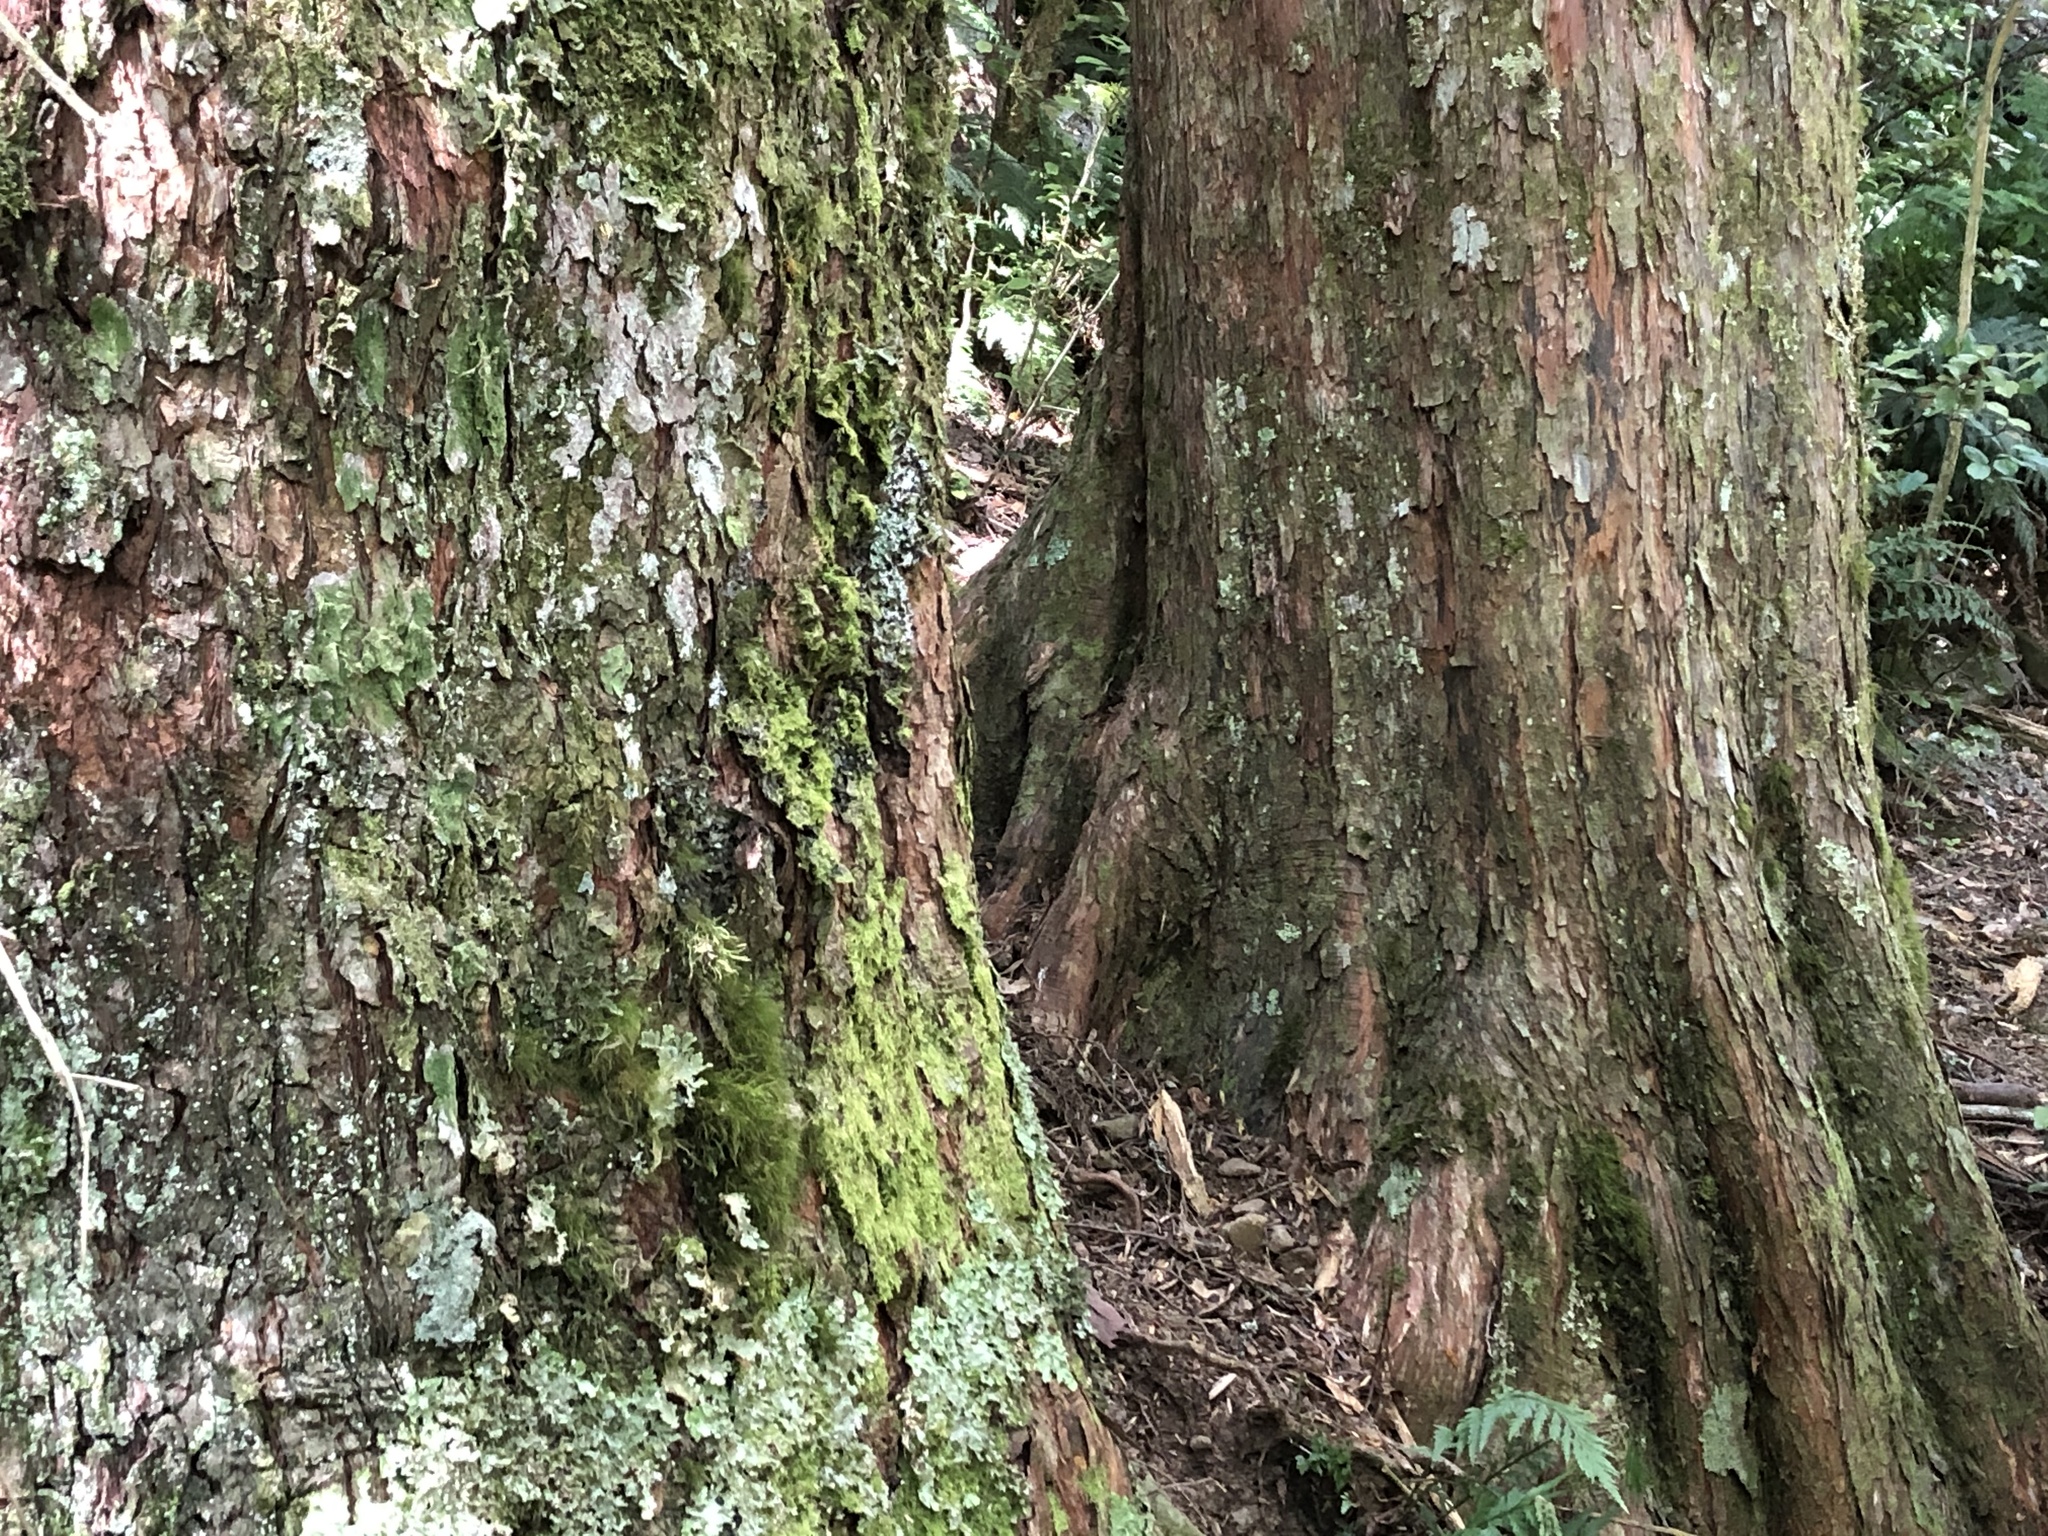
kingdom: Plantae
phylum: Tracheophyta
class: Pinopsida
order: Pinales
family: Podocarpaceae
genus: Podocarpus
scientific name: Podocarpus laetus
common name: Hall's totara
